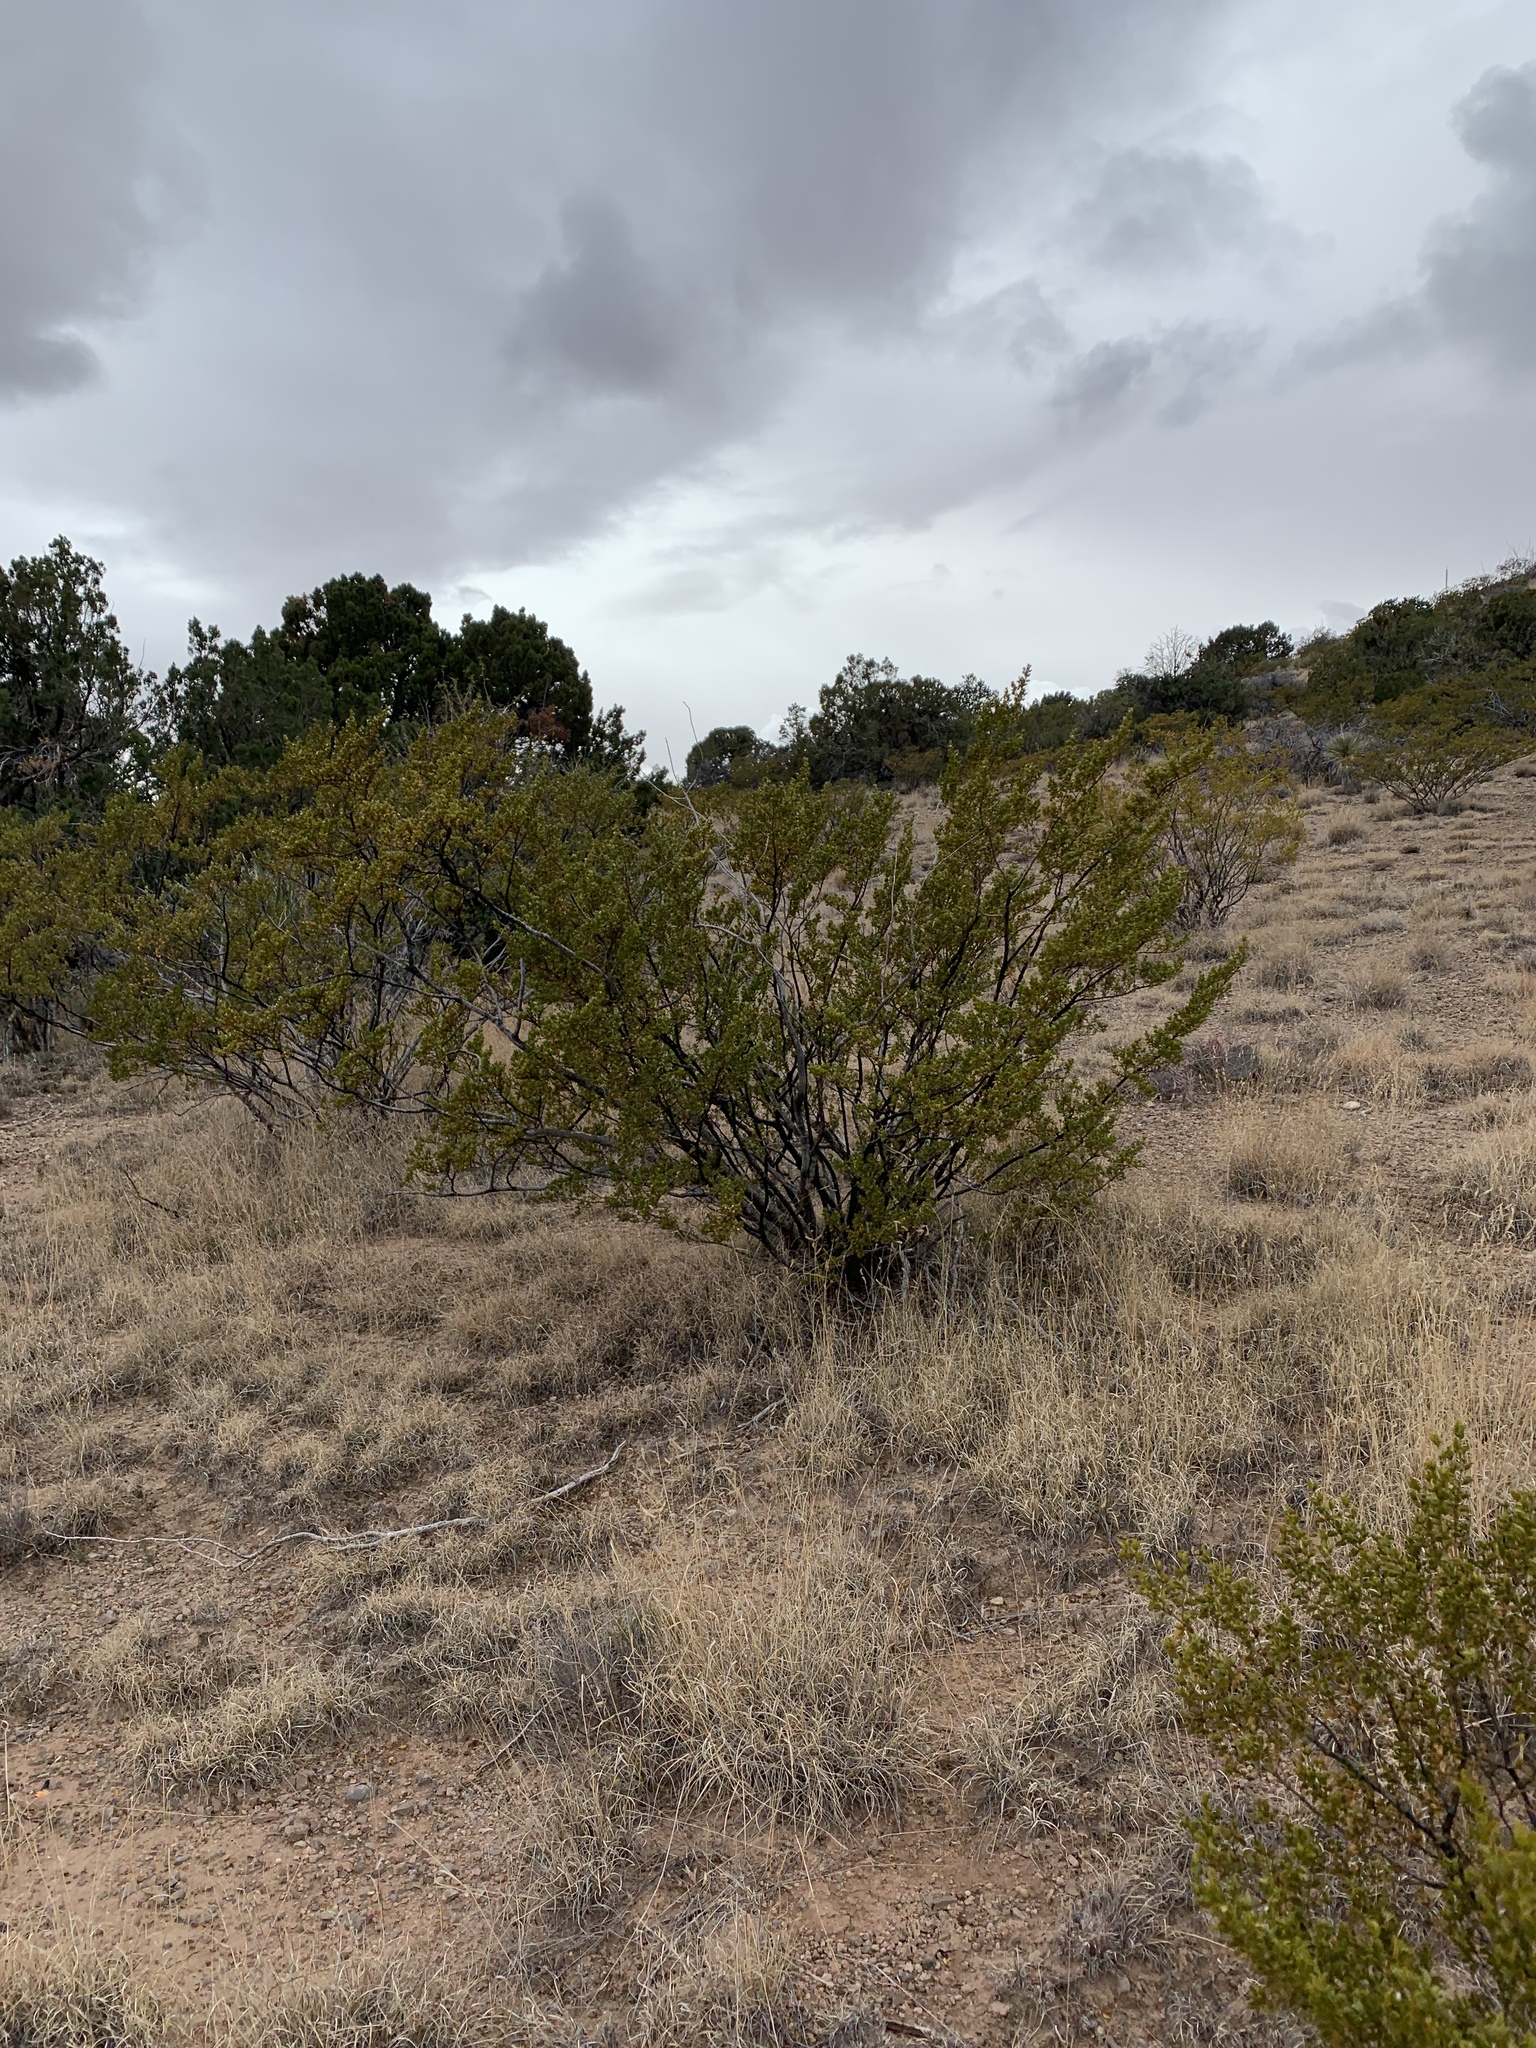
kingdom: Plantae
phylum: Tracheophyta
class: Magnoliopsida
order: Zygophyllales
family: Zygophyllaceae
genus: Larrea
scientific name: Larrea tridentata
